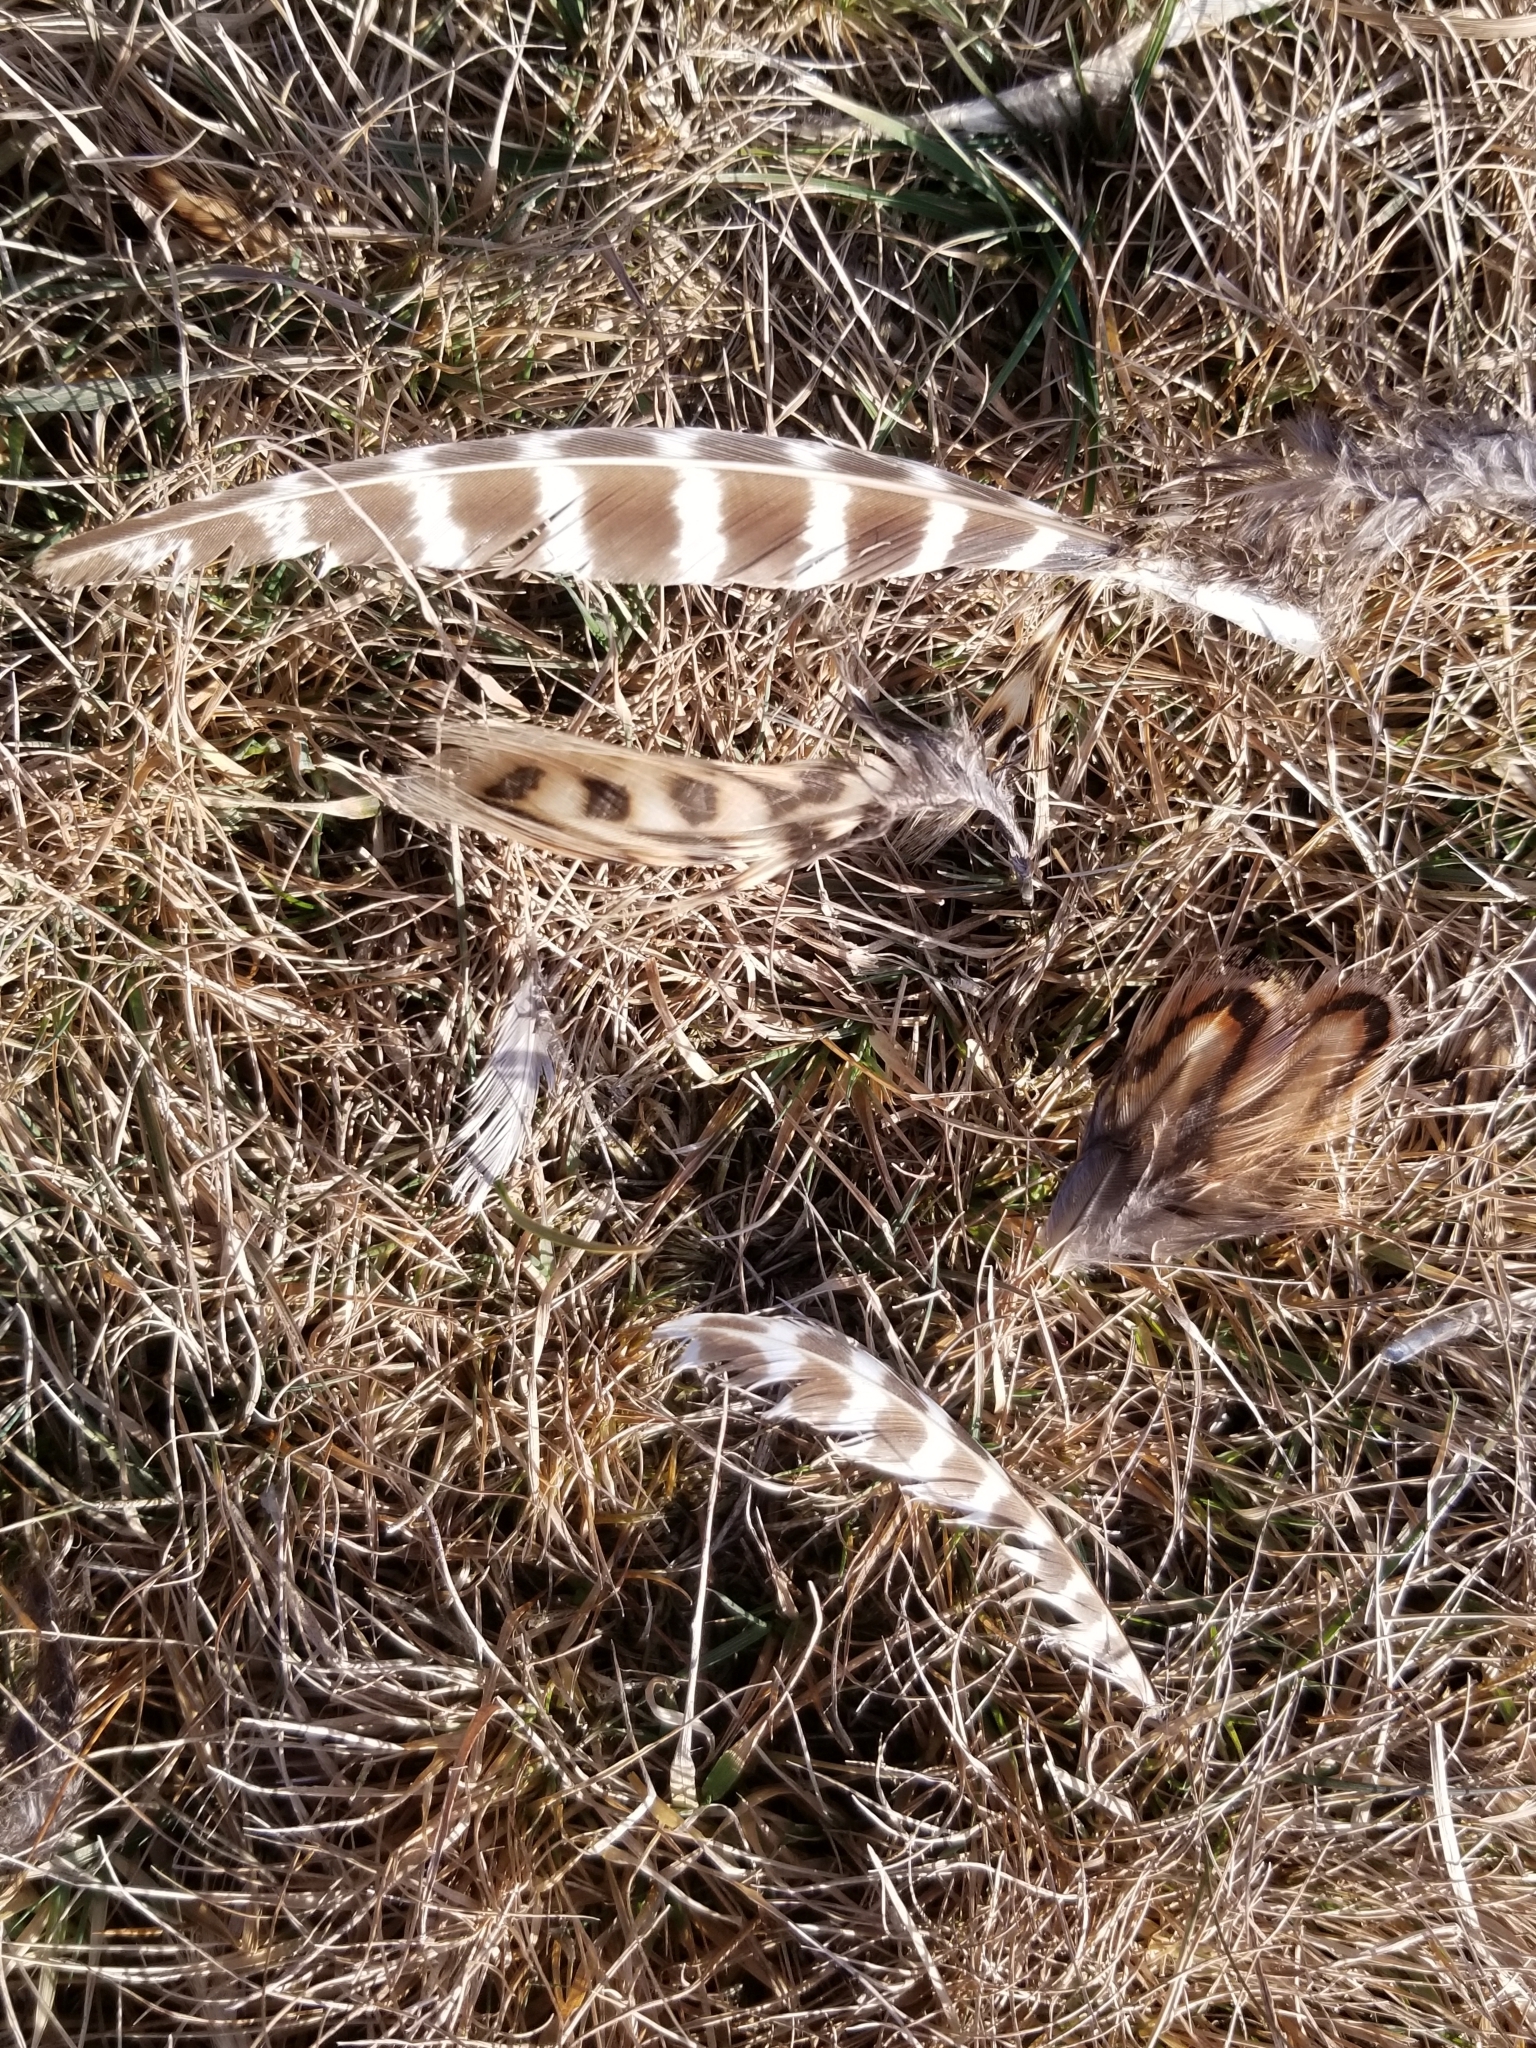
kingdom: Animalia
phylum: Chordata
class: Aves
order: Galliformes
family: Phasianidae
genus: Phasianus
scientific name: Phasianus colchicus
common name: Common pheasant
